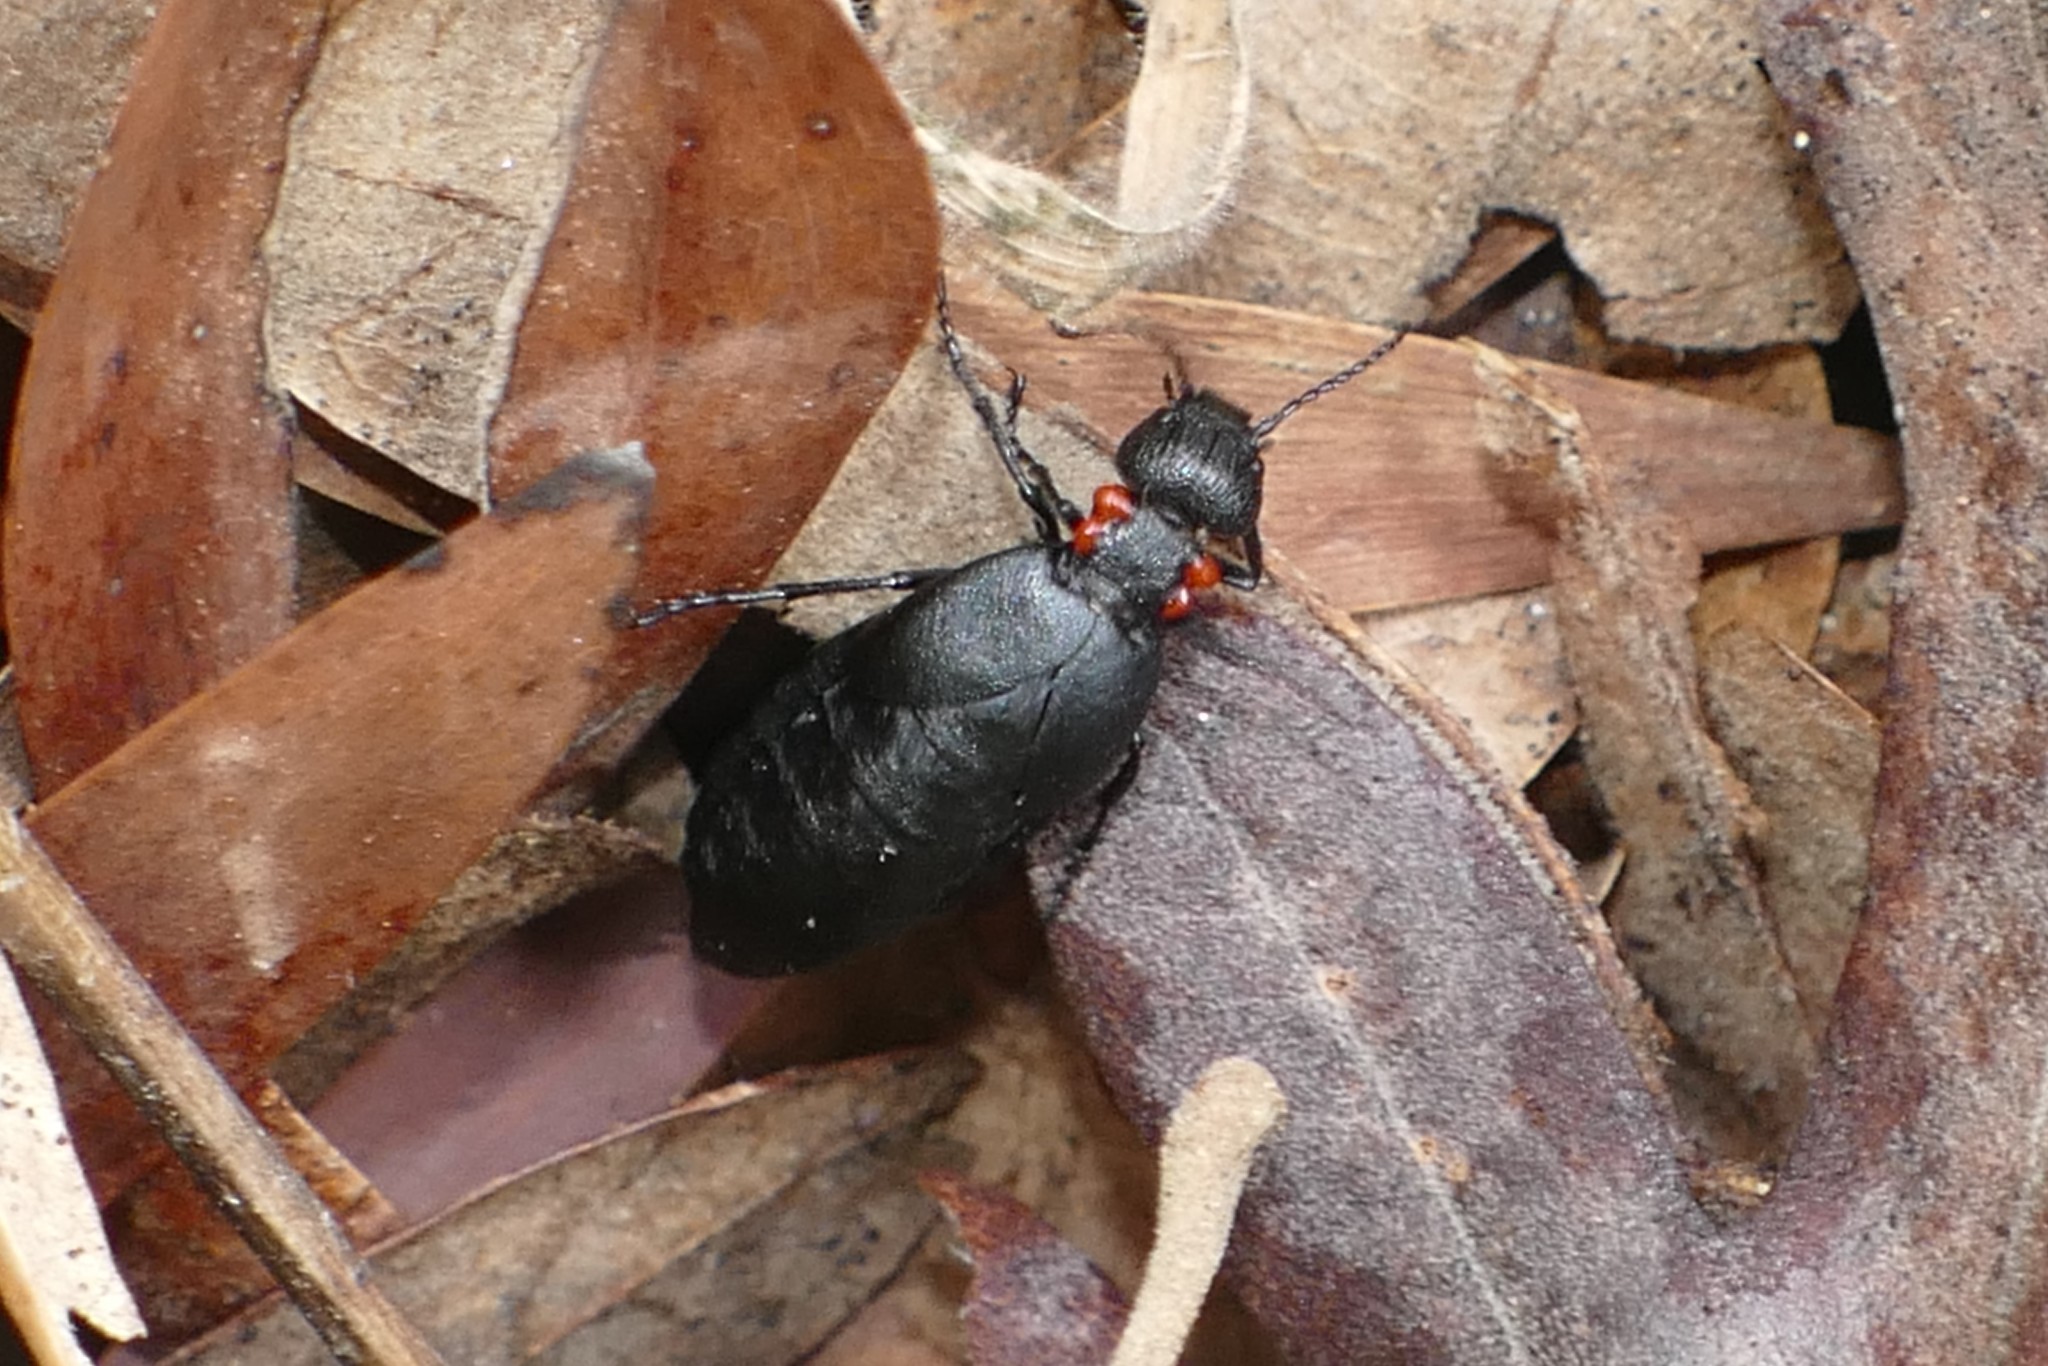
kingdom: Animalia
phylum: Arthropoda
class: Insecta
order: Coleoptera
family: Meloidae
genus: Physomeloe
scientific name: Physomeloe corallifer
